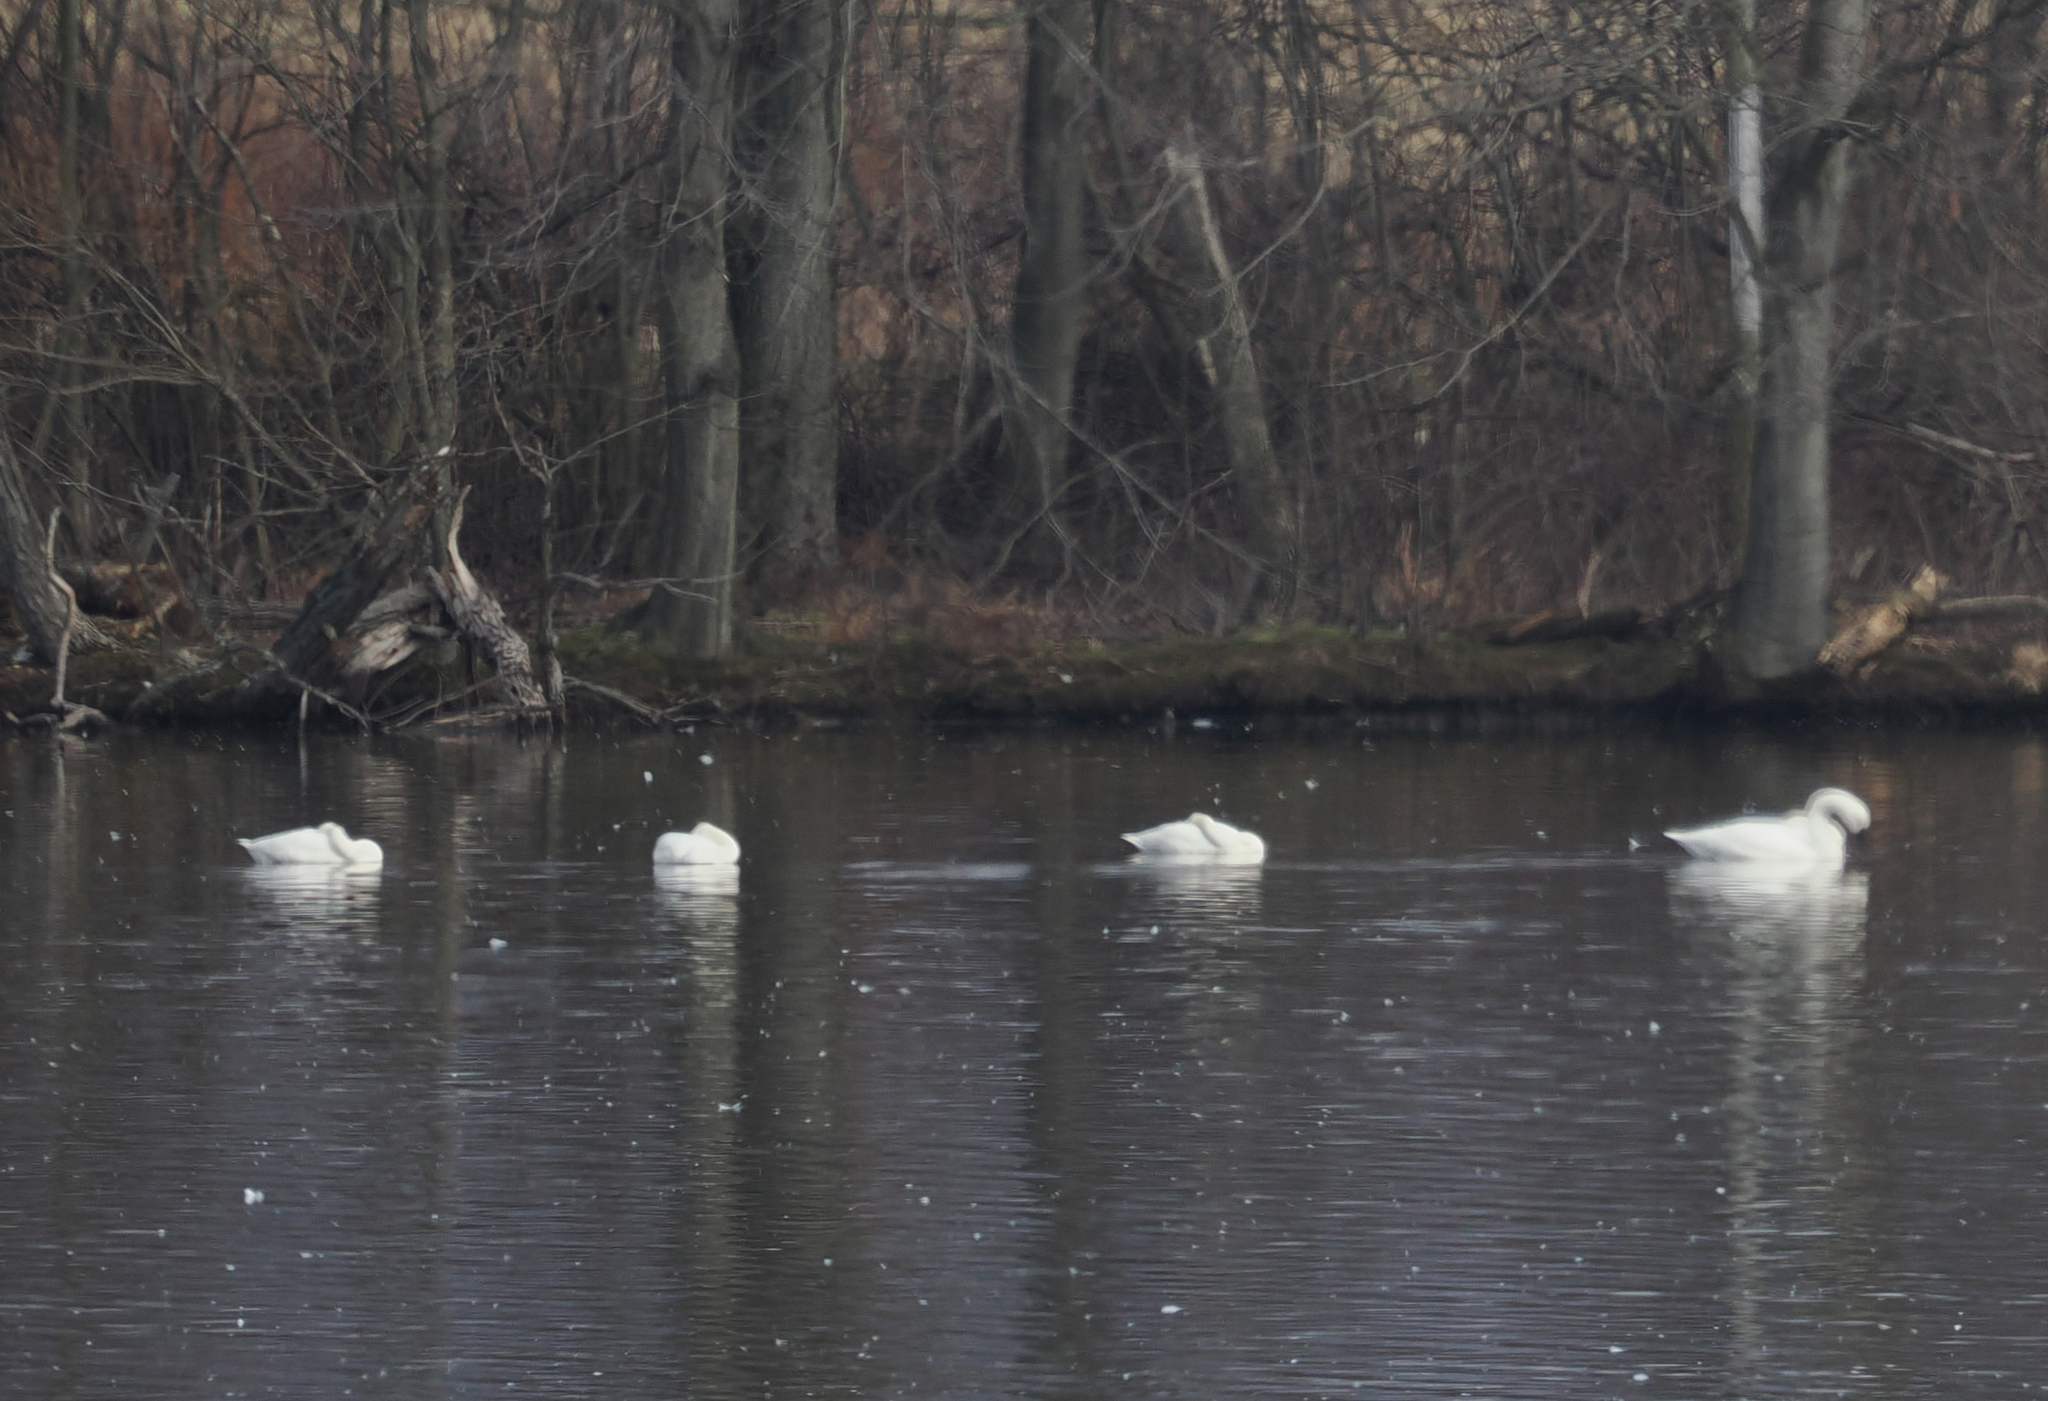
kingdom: Animalia
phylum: Chordata
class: Aves
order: Anseriformes
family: Anatidae
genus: Cygnus
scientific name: Cygnus columbianus
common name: Tundra swan
